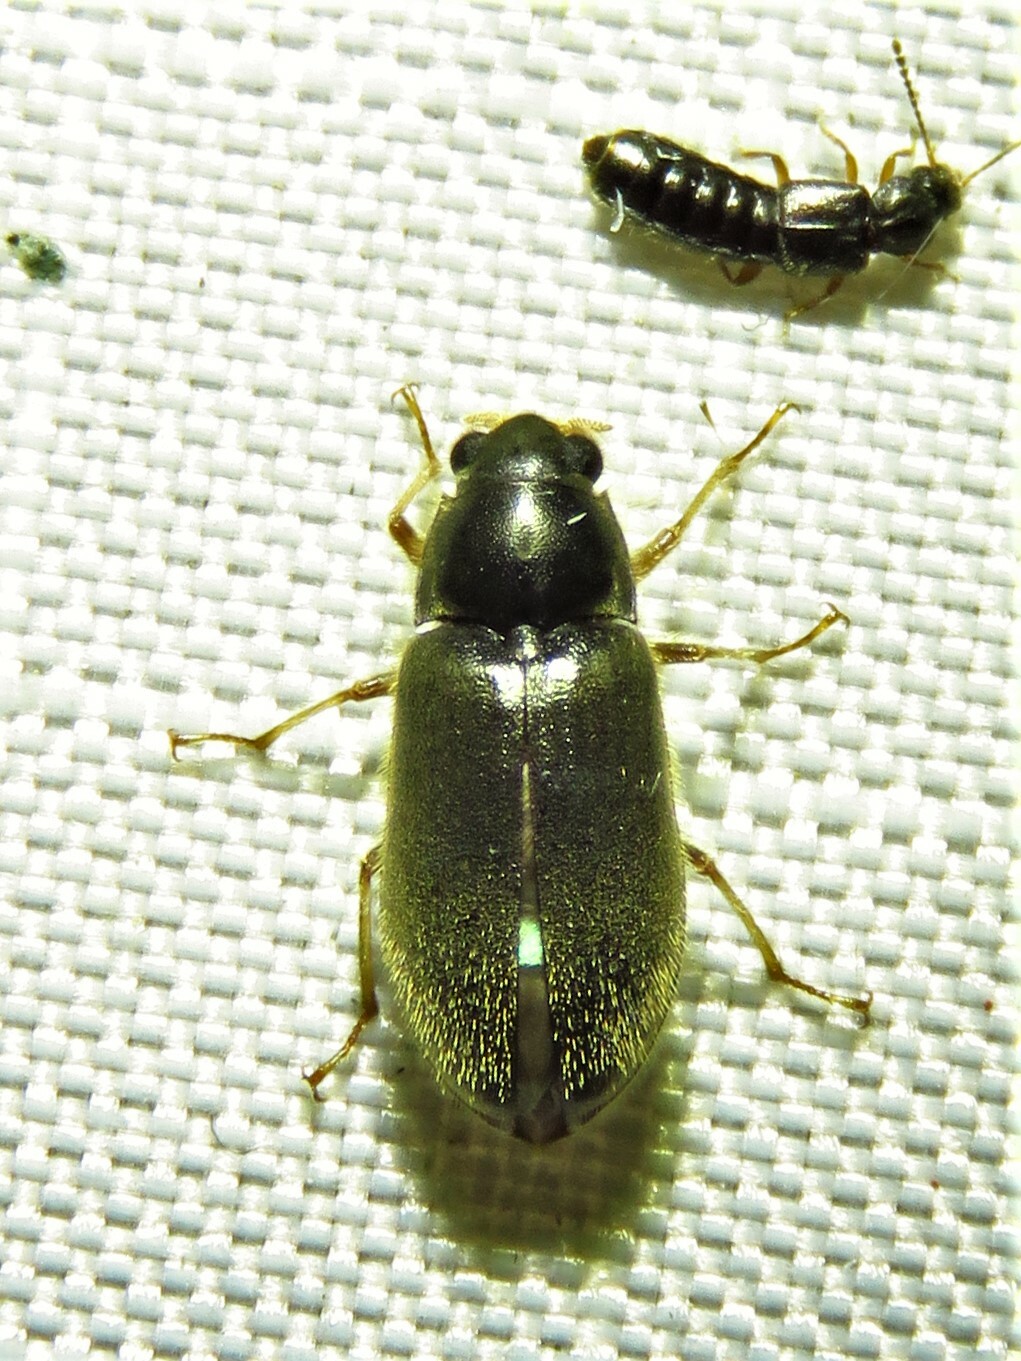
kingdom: Animalia
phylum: Arthropoda
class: Insecta
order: Coleoptera
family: Dryopidae
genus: Pelonomus
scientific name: Pelonomus obscurus
